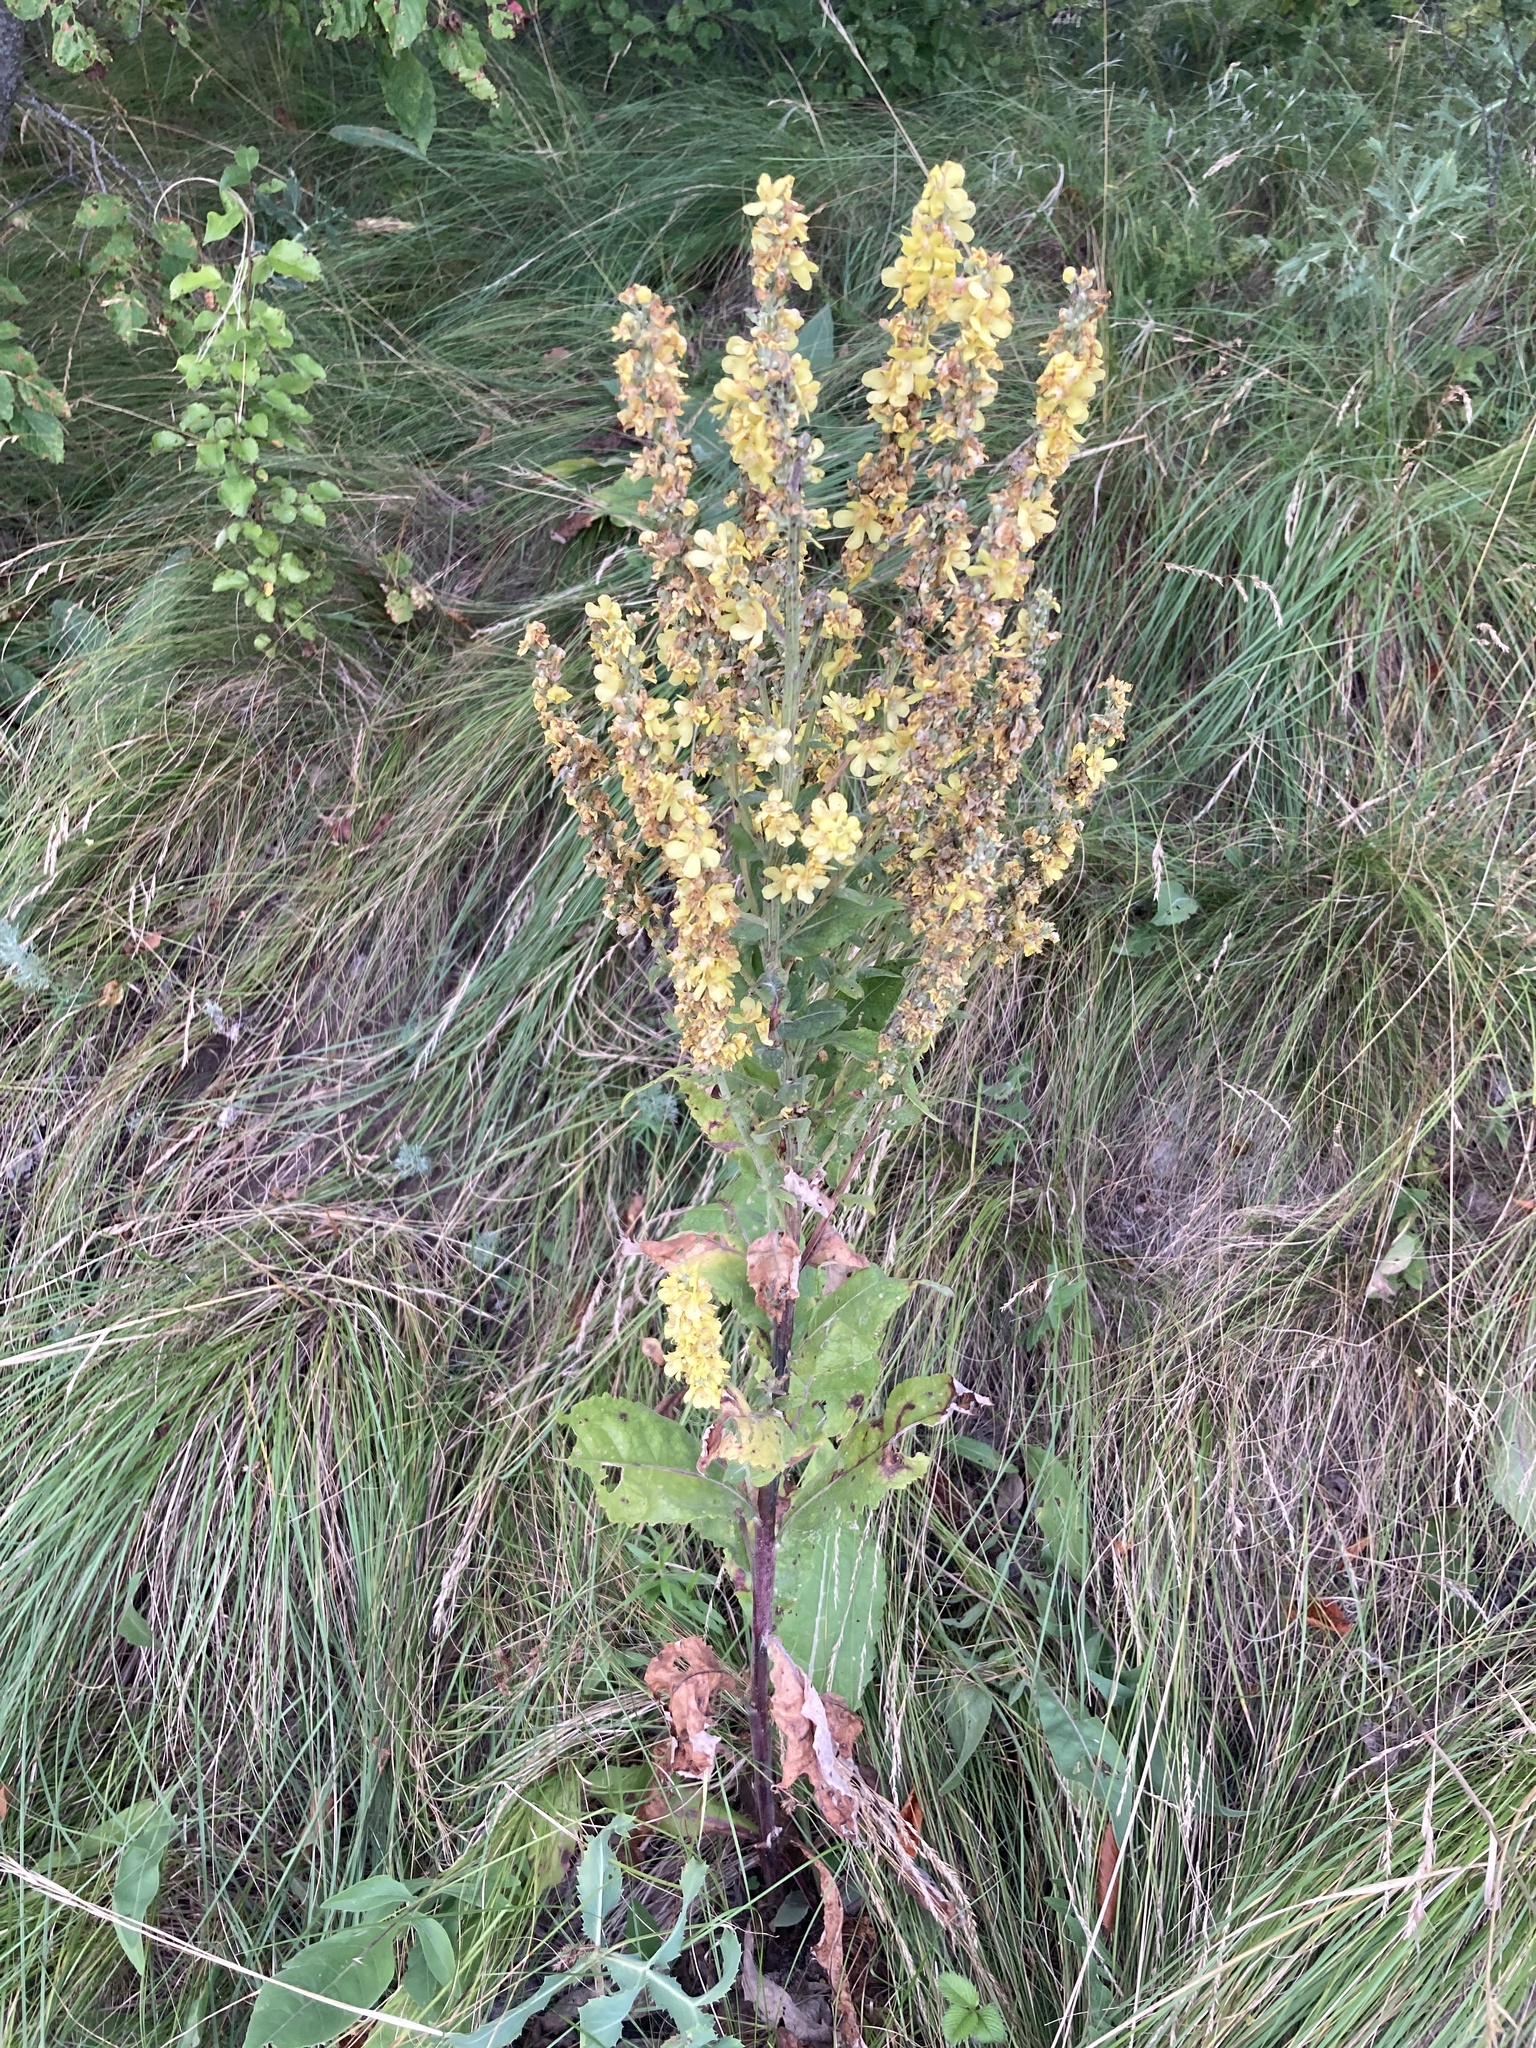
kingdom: Plantae
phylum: Tracheophyta
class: Magnoliopsida
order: Lamiales
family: Scrophulariaceae
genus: Verbascum
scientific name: Verbascum lychnitis
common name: White mullein
